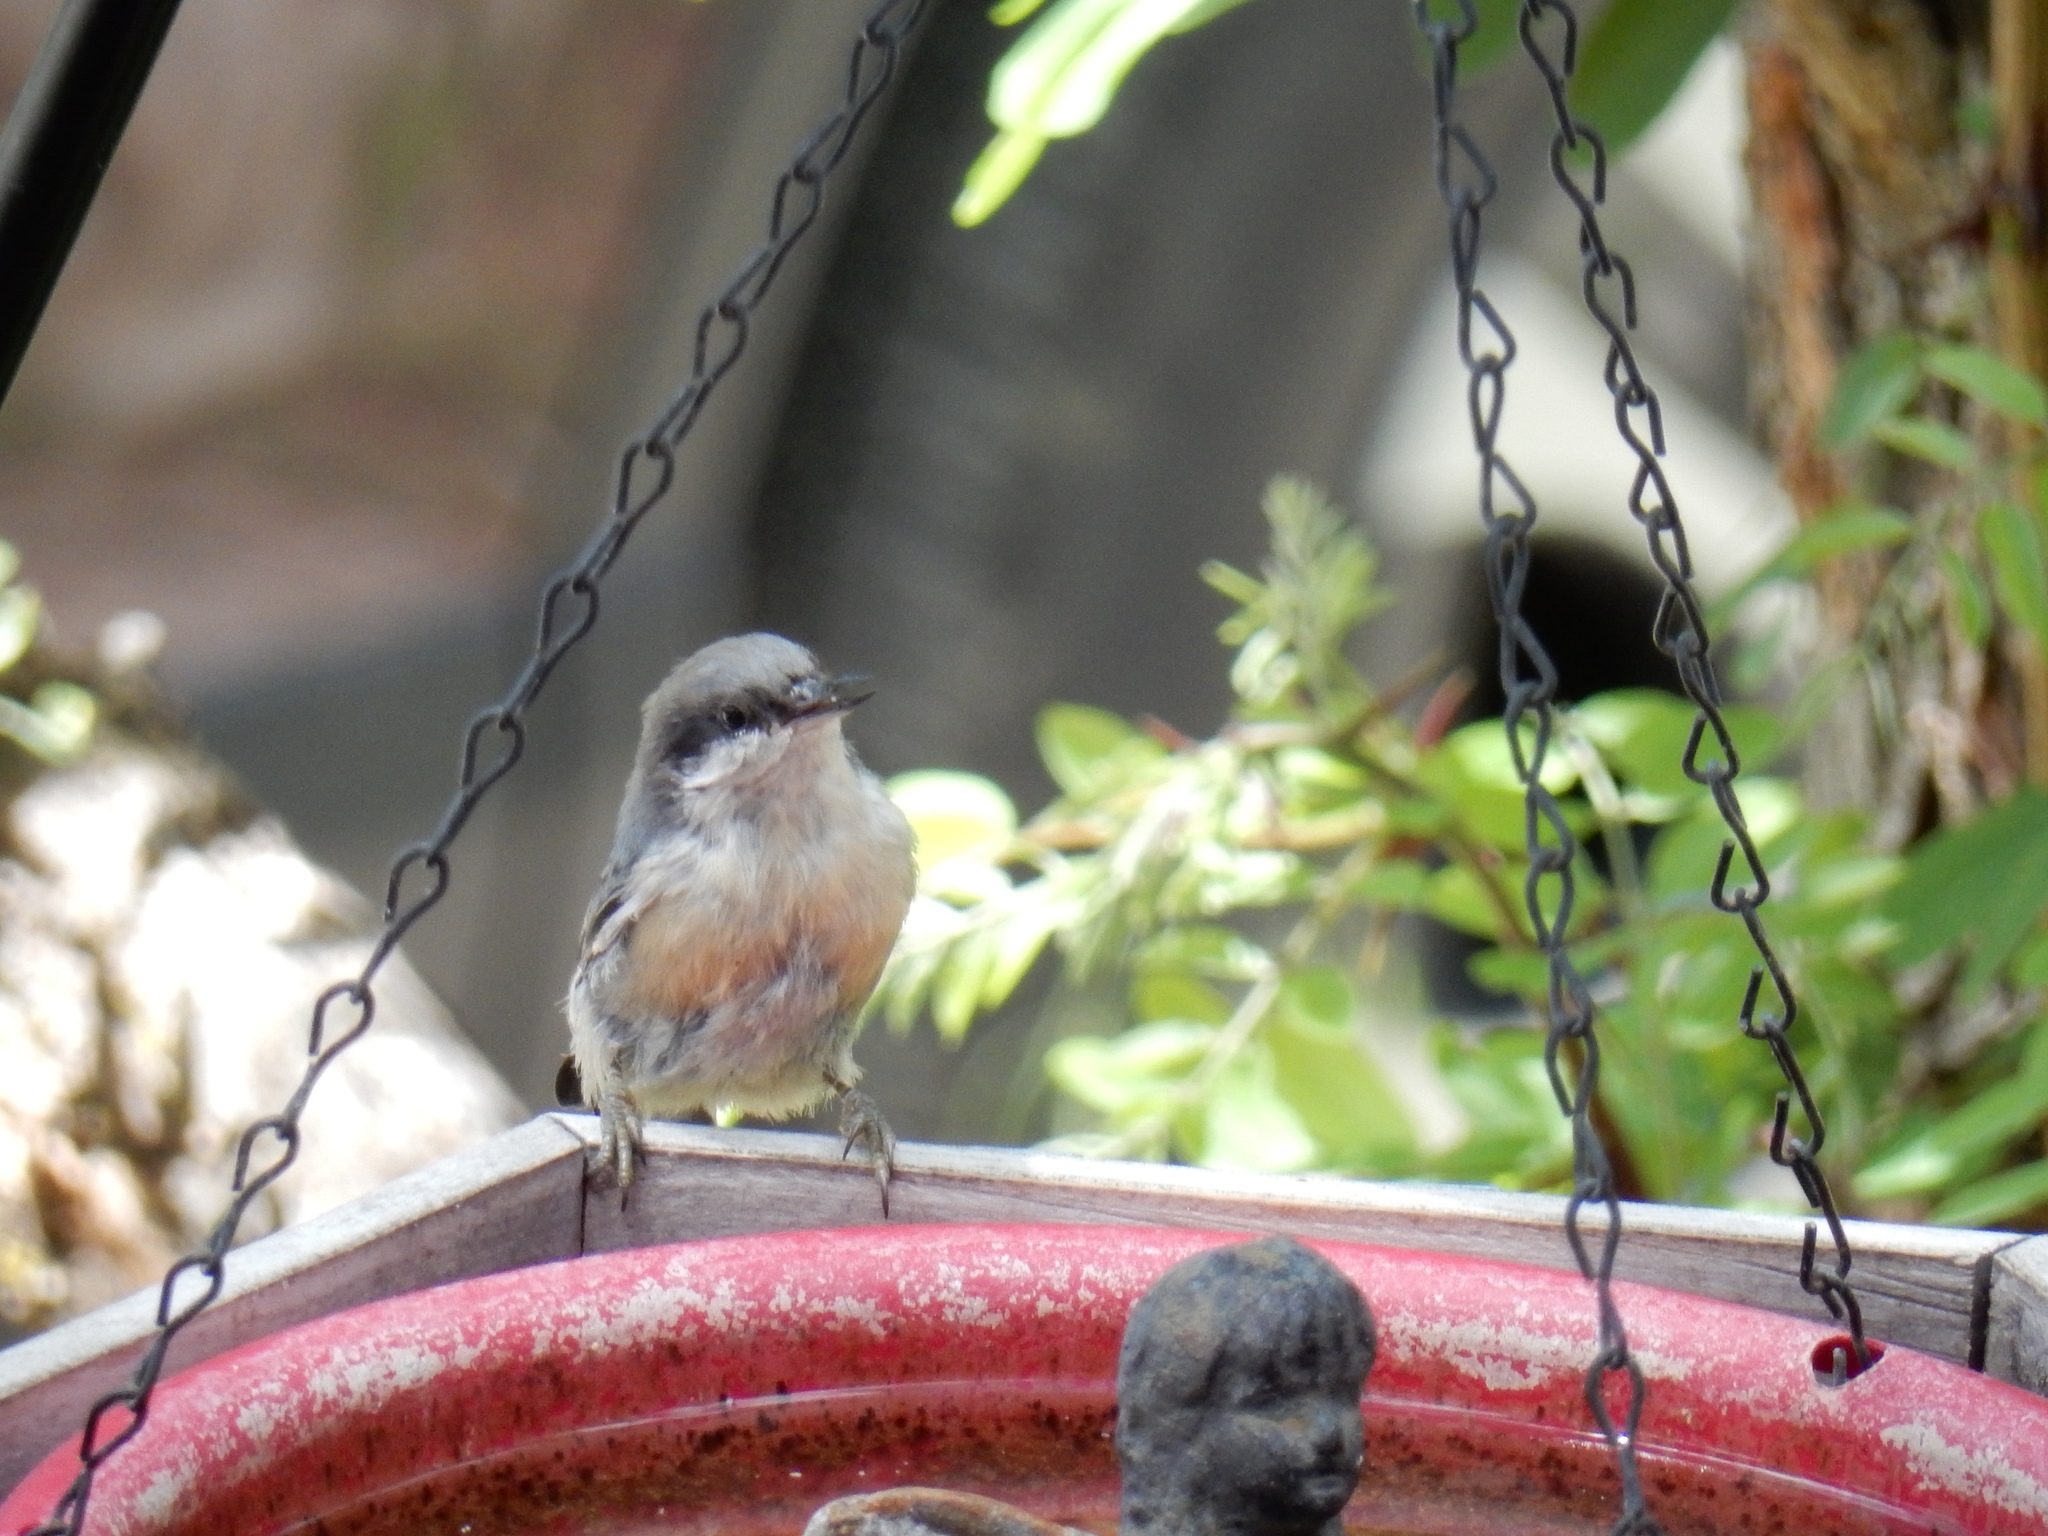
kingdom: Animalia
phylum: Chordata
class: Aves
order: Passeriformes
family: Sittidae
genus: Sitta
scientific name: Sitta pygmaea
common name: Pygmy nuthatch
